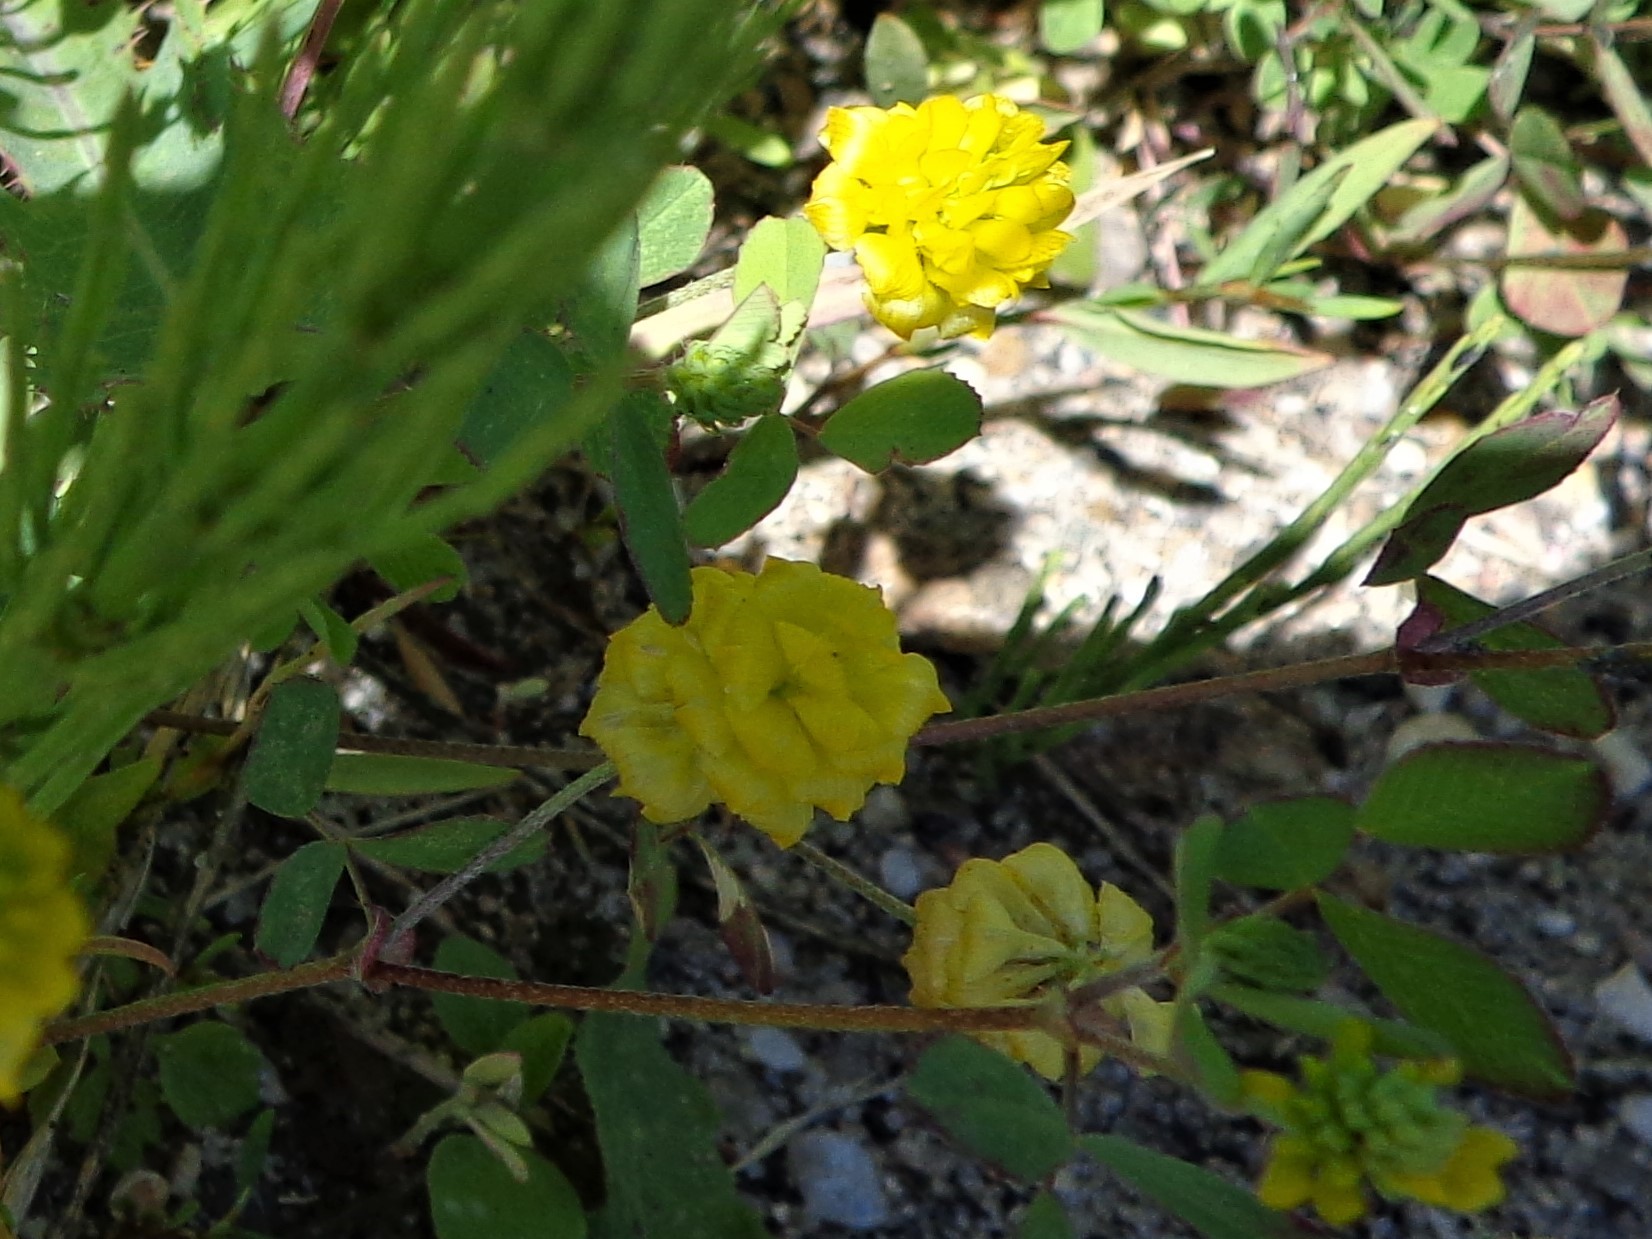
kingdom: Plantae
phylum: Tracheophyta
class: Magnoliopsida
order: Fabales
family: Fabaceae
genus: Trifolium
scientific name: Trifolium campestre
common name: Field clover
